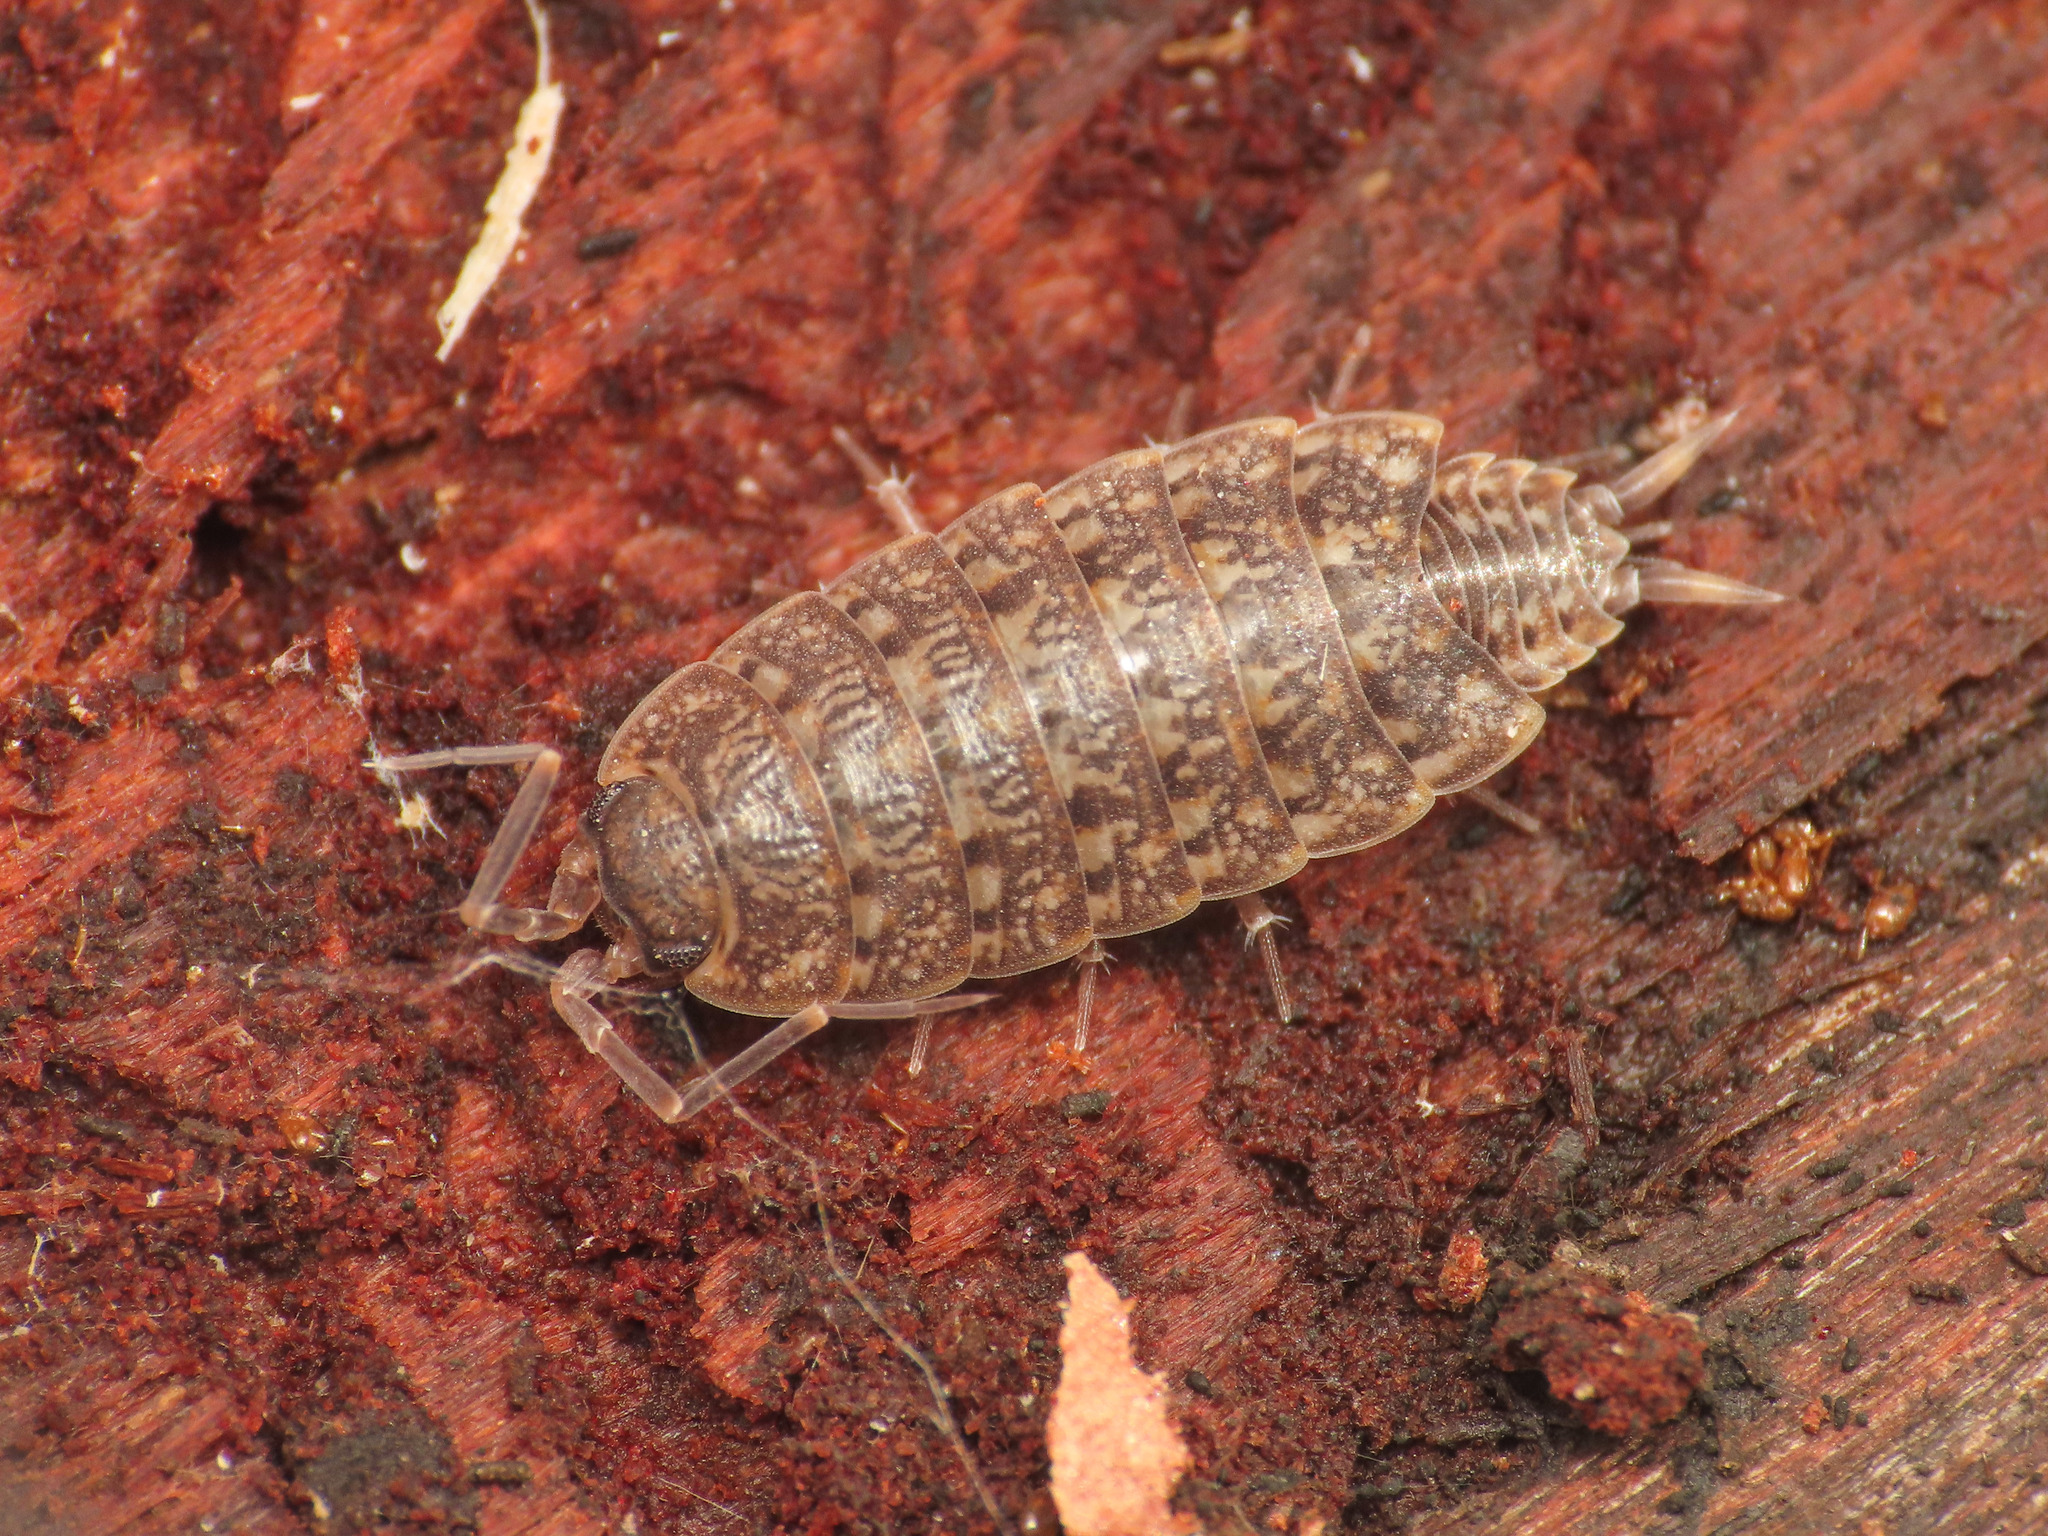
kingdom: Animalia
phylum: Arthropoda
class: Malacostraca
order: Isopoda
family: Agnaridae
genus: Orthometopon
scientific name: Orthometopon dalmatinum
